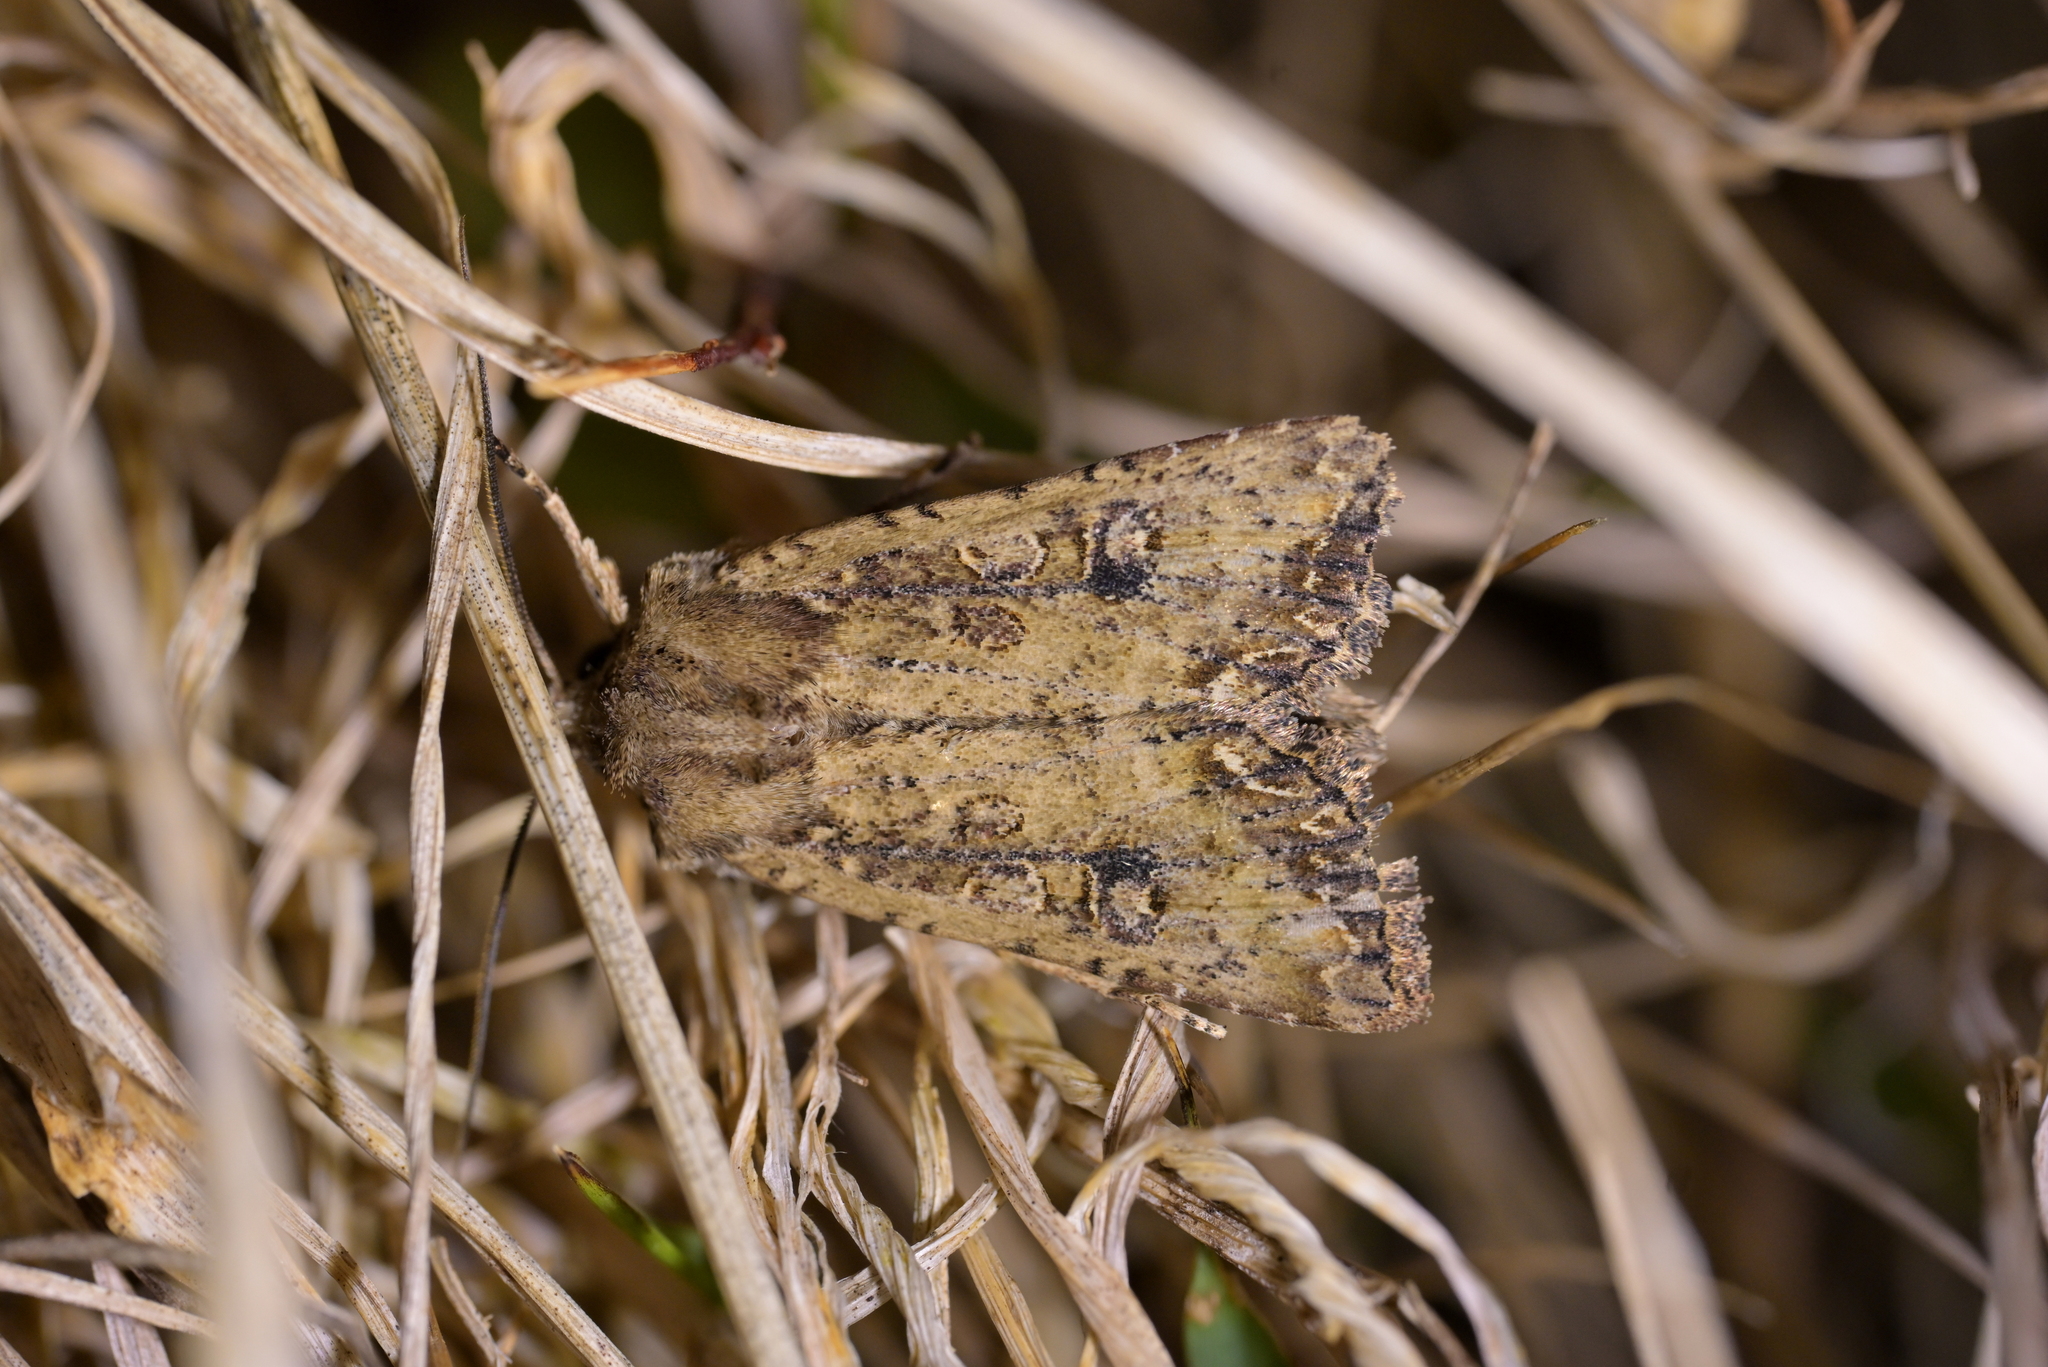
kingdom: Animalia
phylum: Arthropoda
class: Insecta
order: Lepidoptera
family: Noctuidae
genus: Ichneutica
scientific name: Ichneutica morosa
